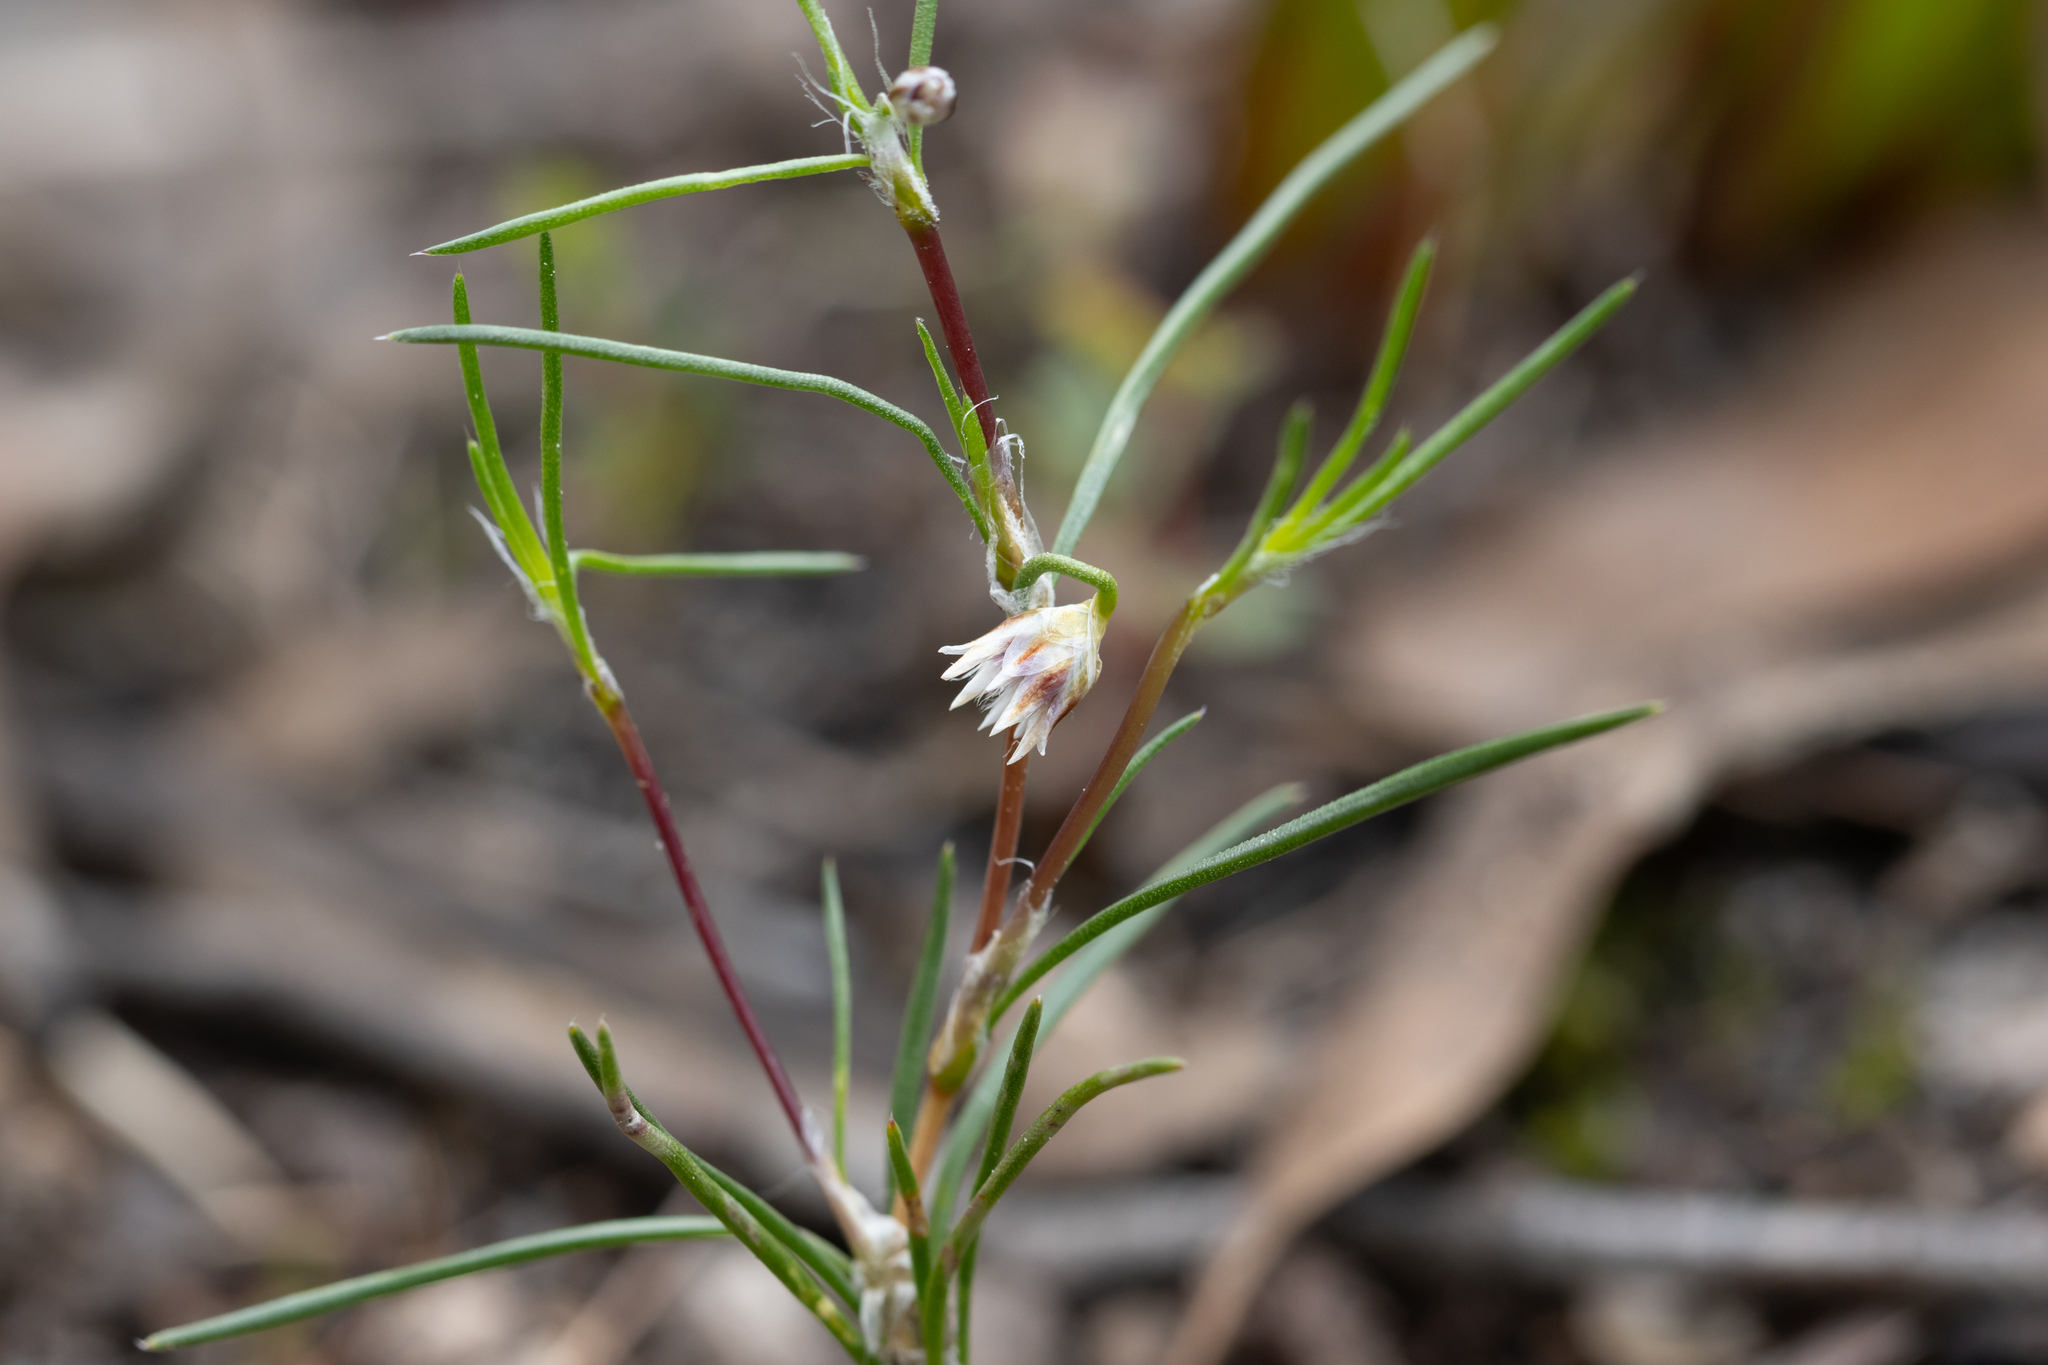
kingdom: Plantae
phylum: Tracheophyta
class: Liliopsida
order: Asparagales
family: Asparagaceae
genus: Laxmannia
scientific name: Laxmannia orientalis
